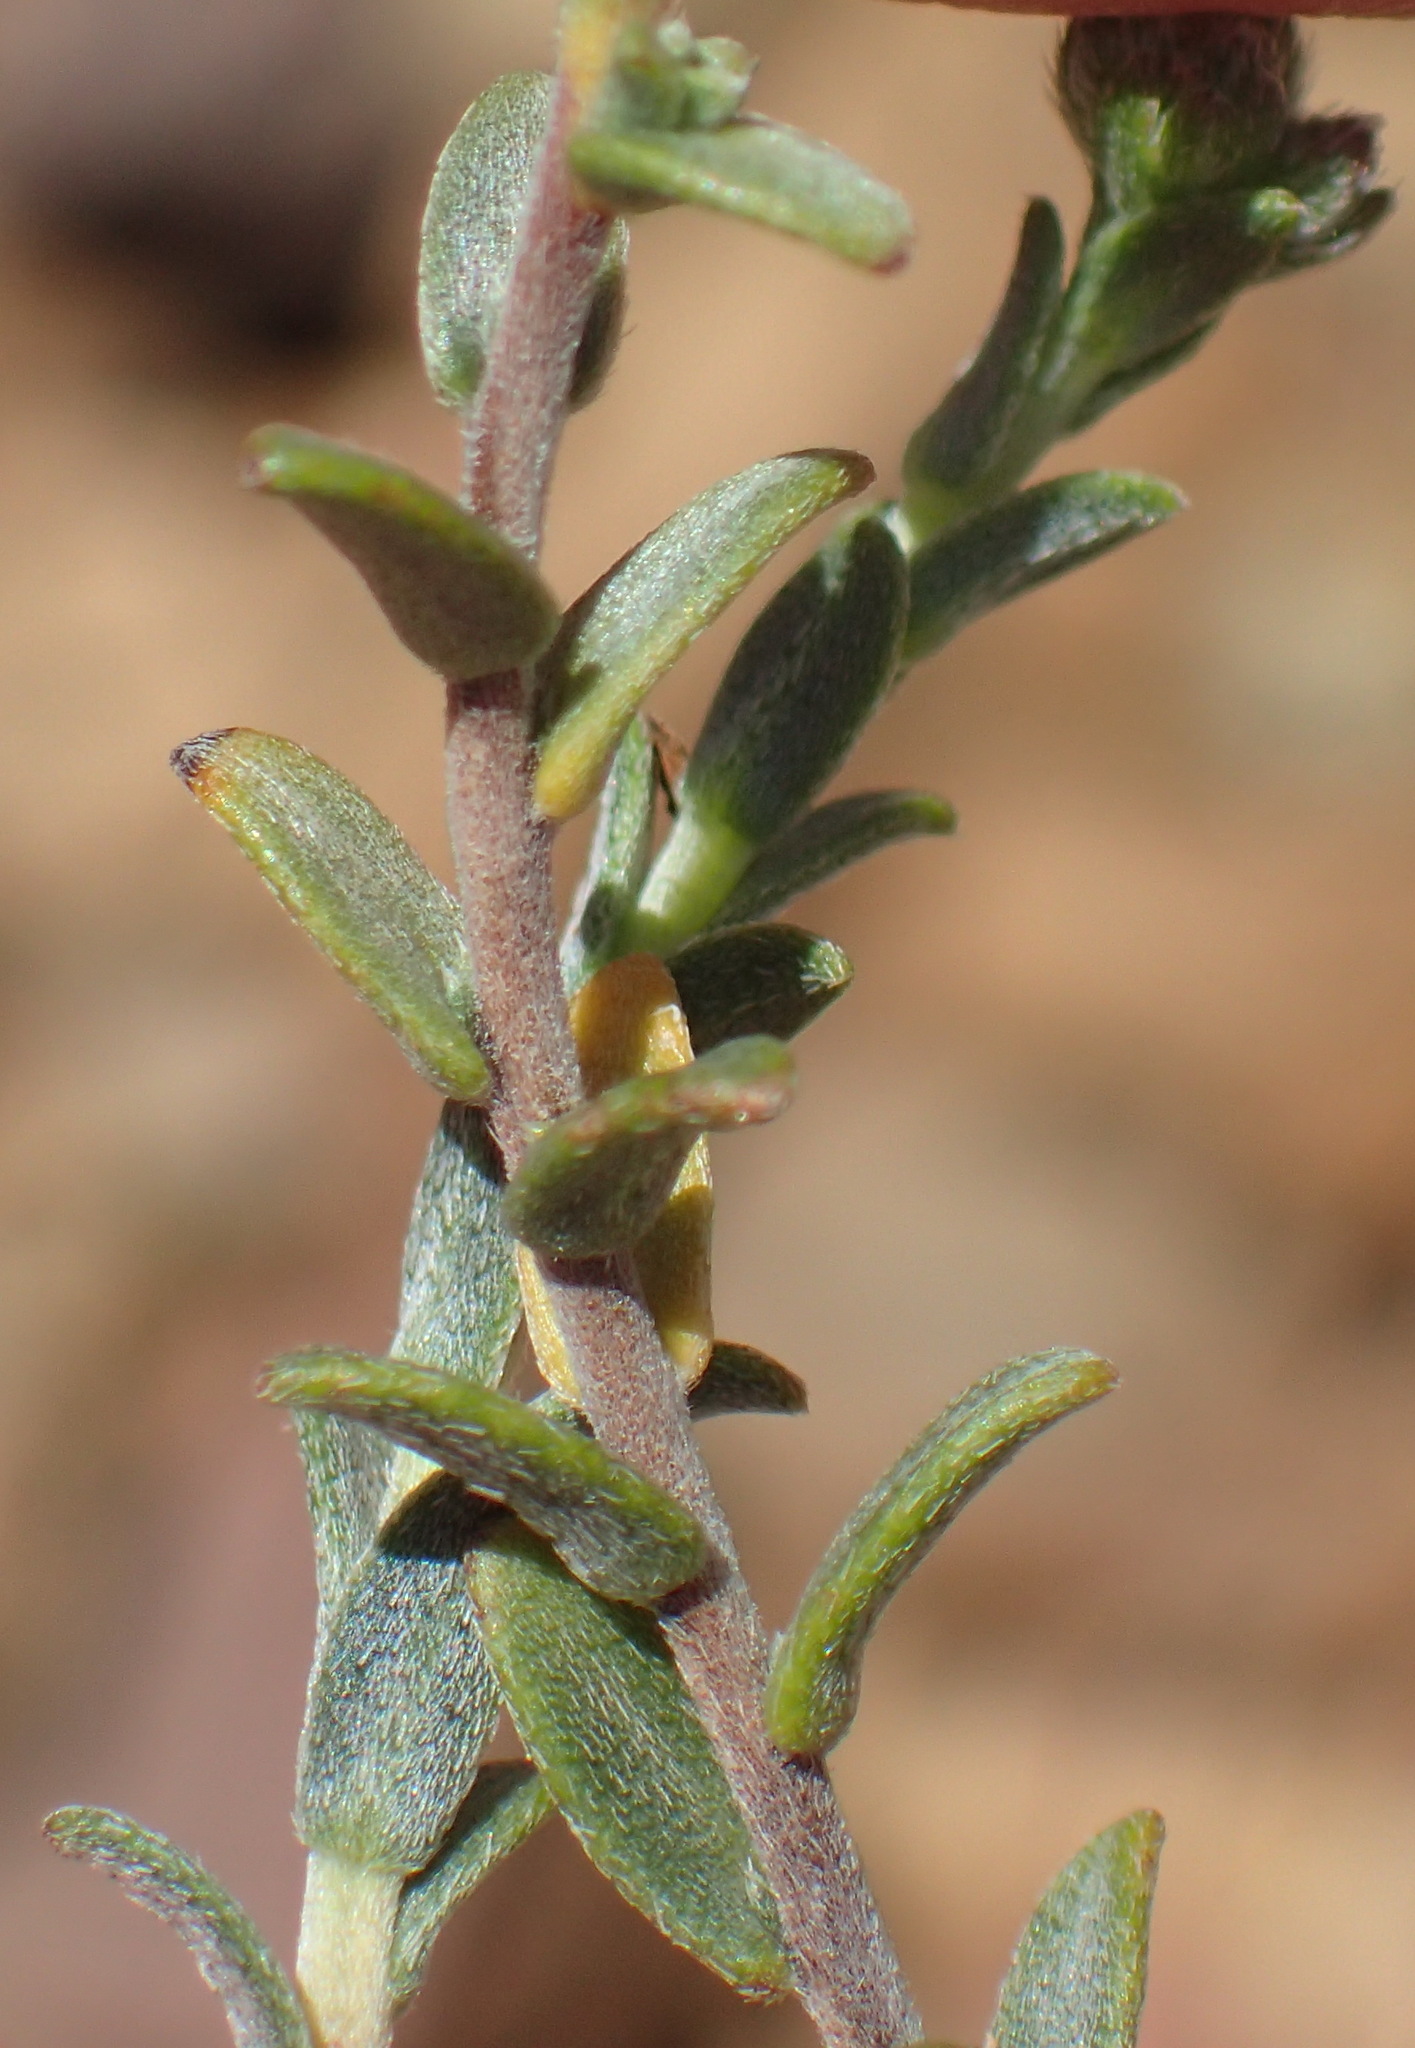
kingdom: Plantae
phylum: Tracheophyta
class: Magnoliopsida
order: Boraginales
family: Boraginaceae
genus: Lobostemon
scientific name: Lobostemon echioides
